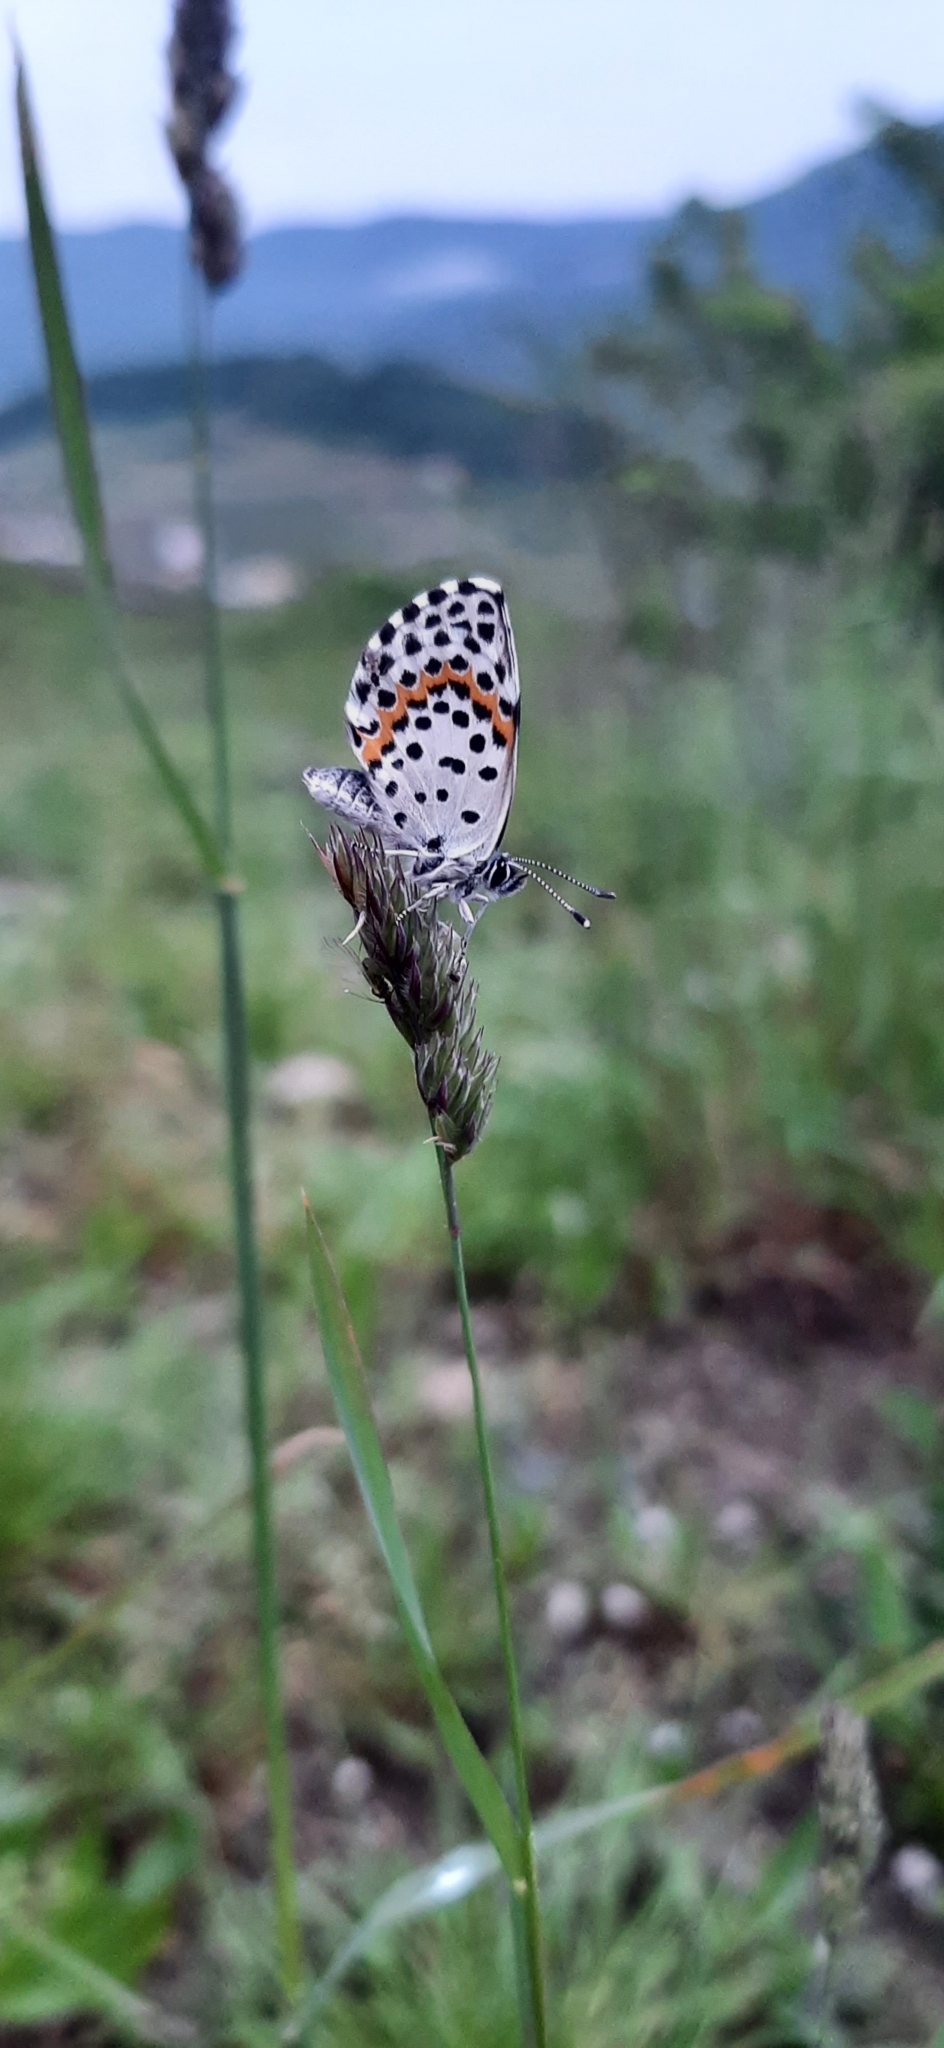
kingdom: Animalia
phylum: Arthropoda
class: Insecta
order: Lepidoptera
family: Lycaenidae
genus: Scolitantides
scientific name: Scolitantides orion
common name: Chequered blue
